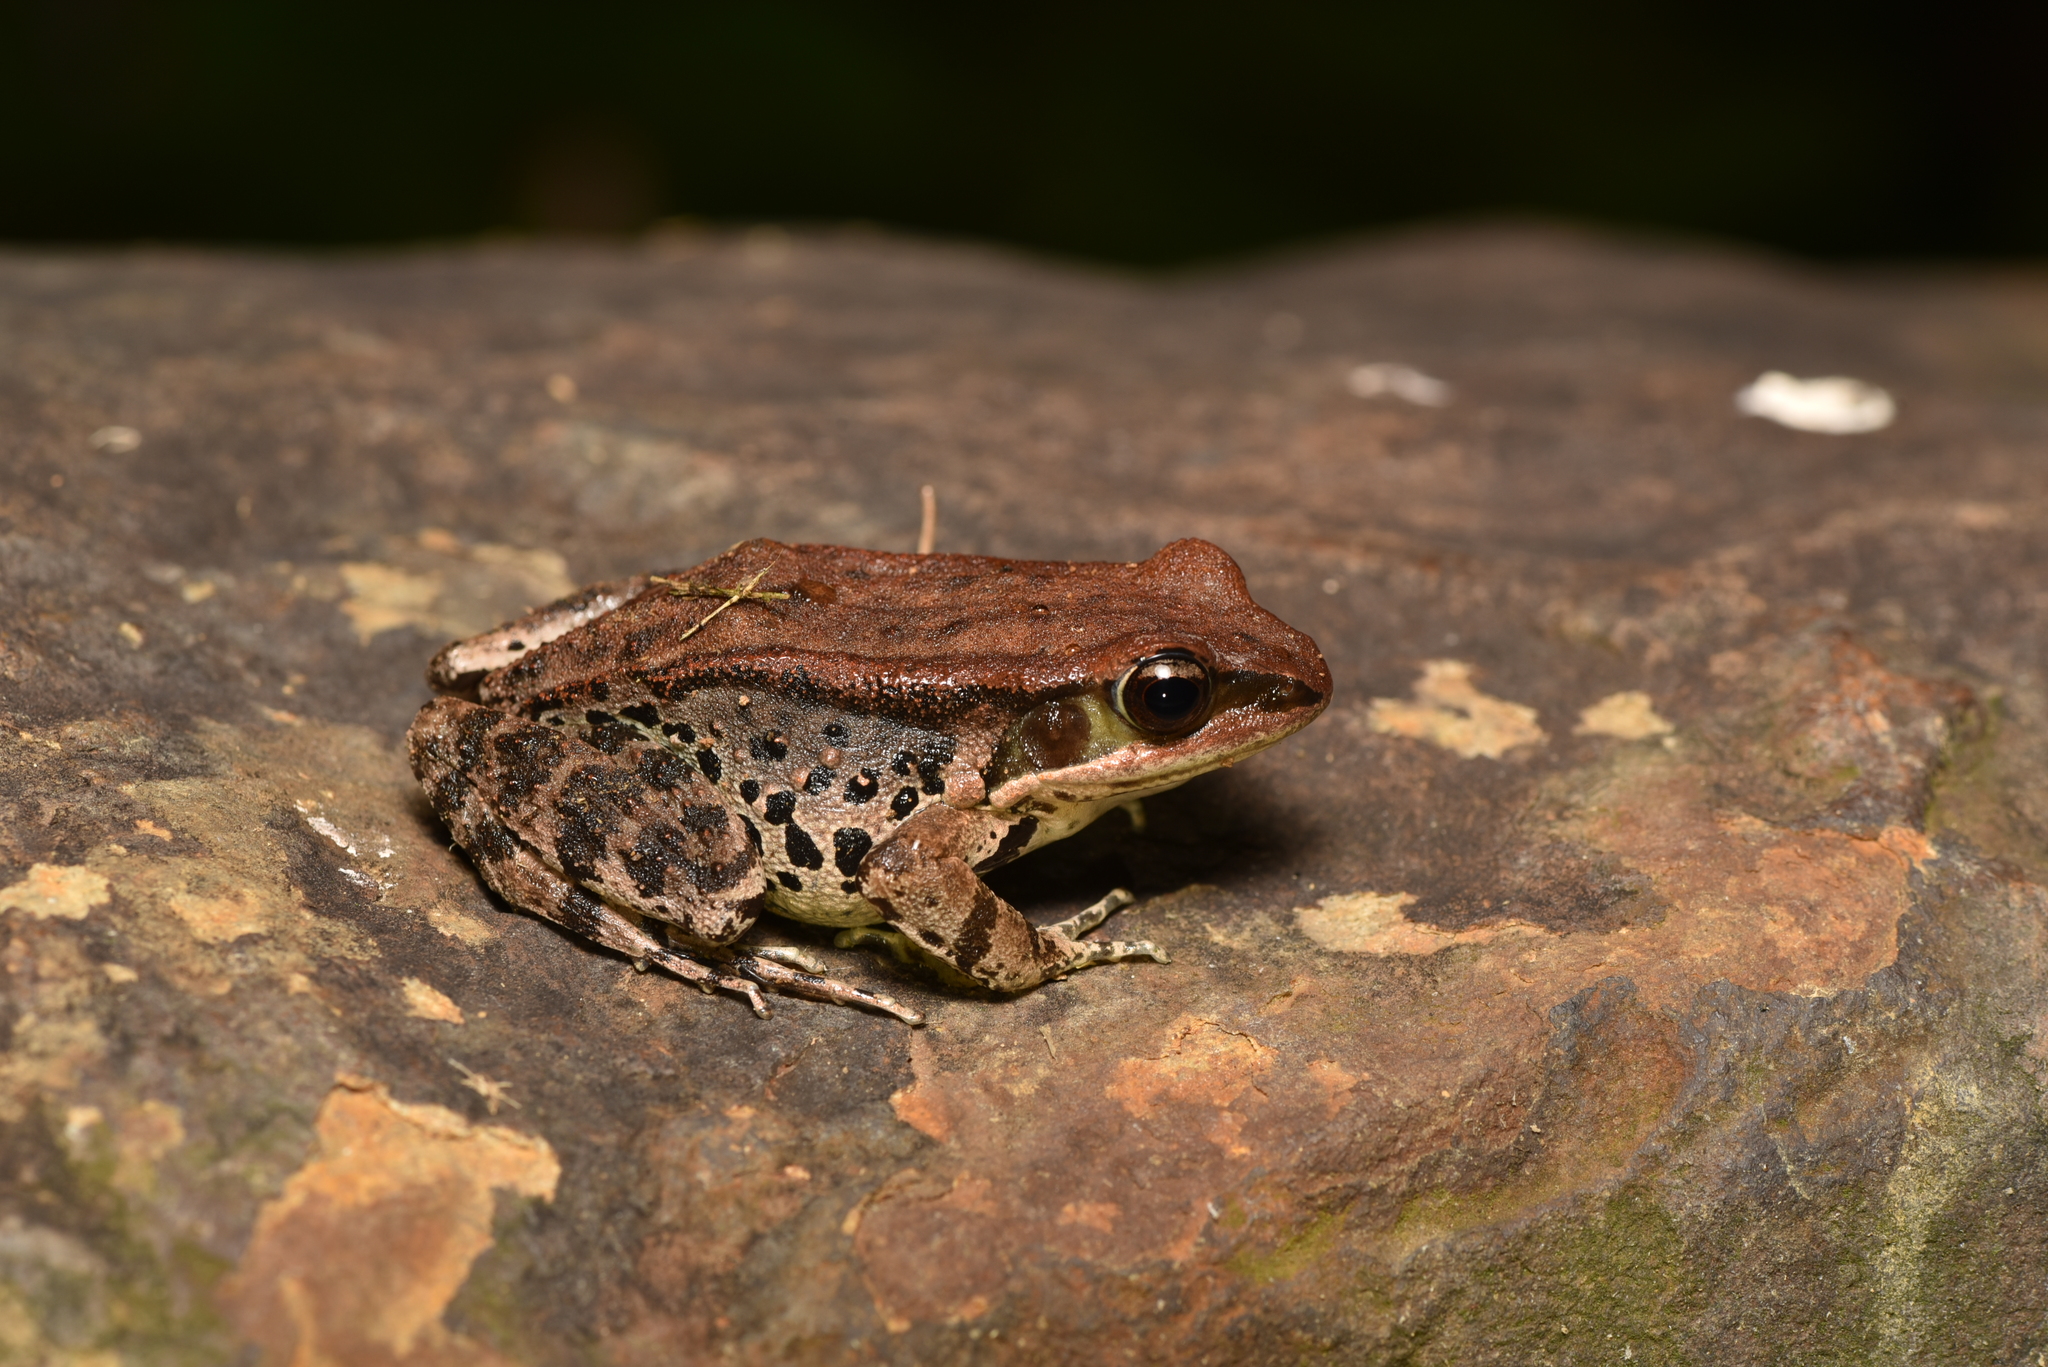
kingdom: Animalia
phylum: Chordata
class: Amphibia
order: Anura
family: Ranidae
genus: Hylarana
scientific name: Hylarana latouchii
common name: Broad-folded frog
